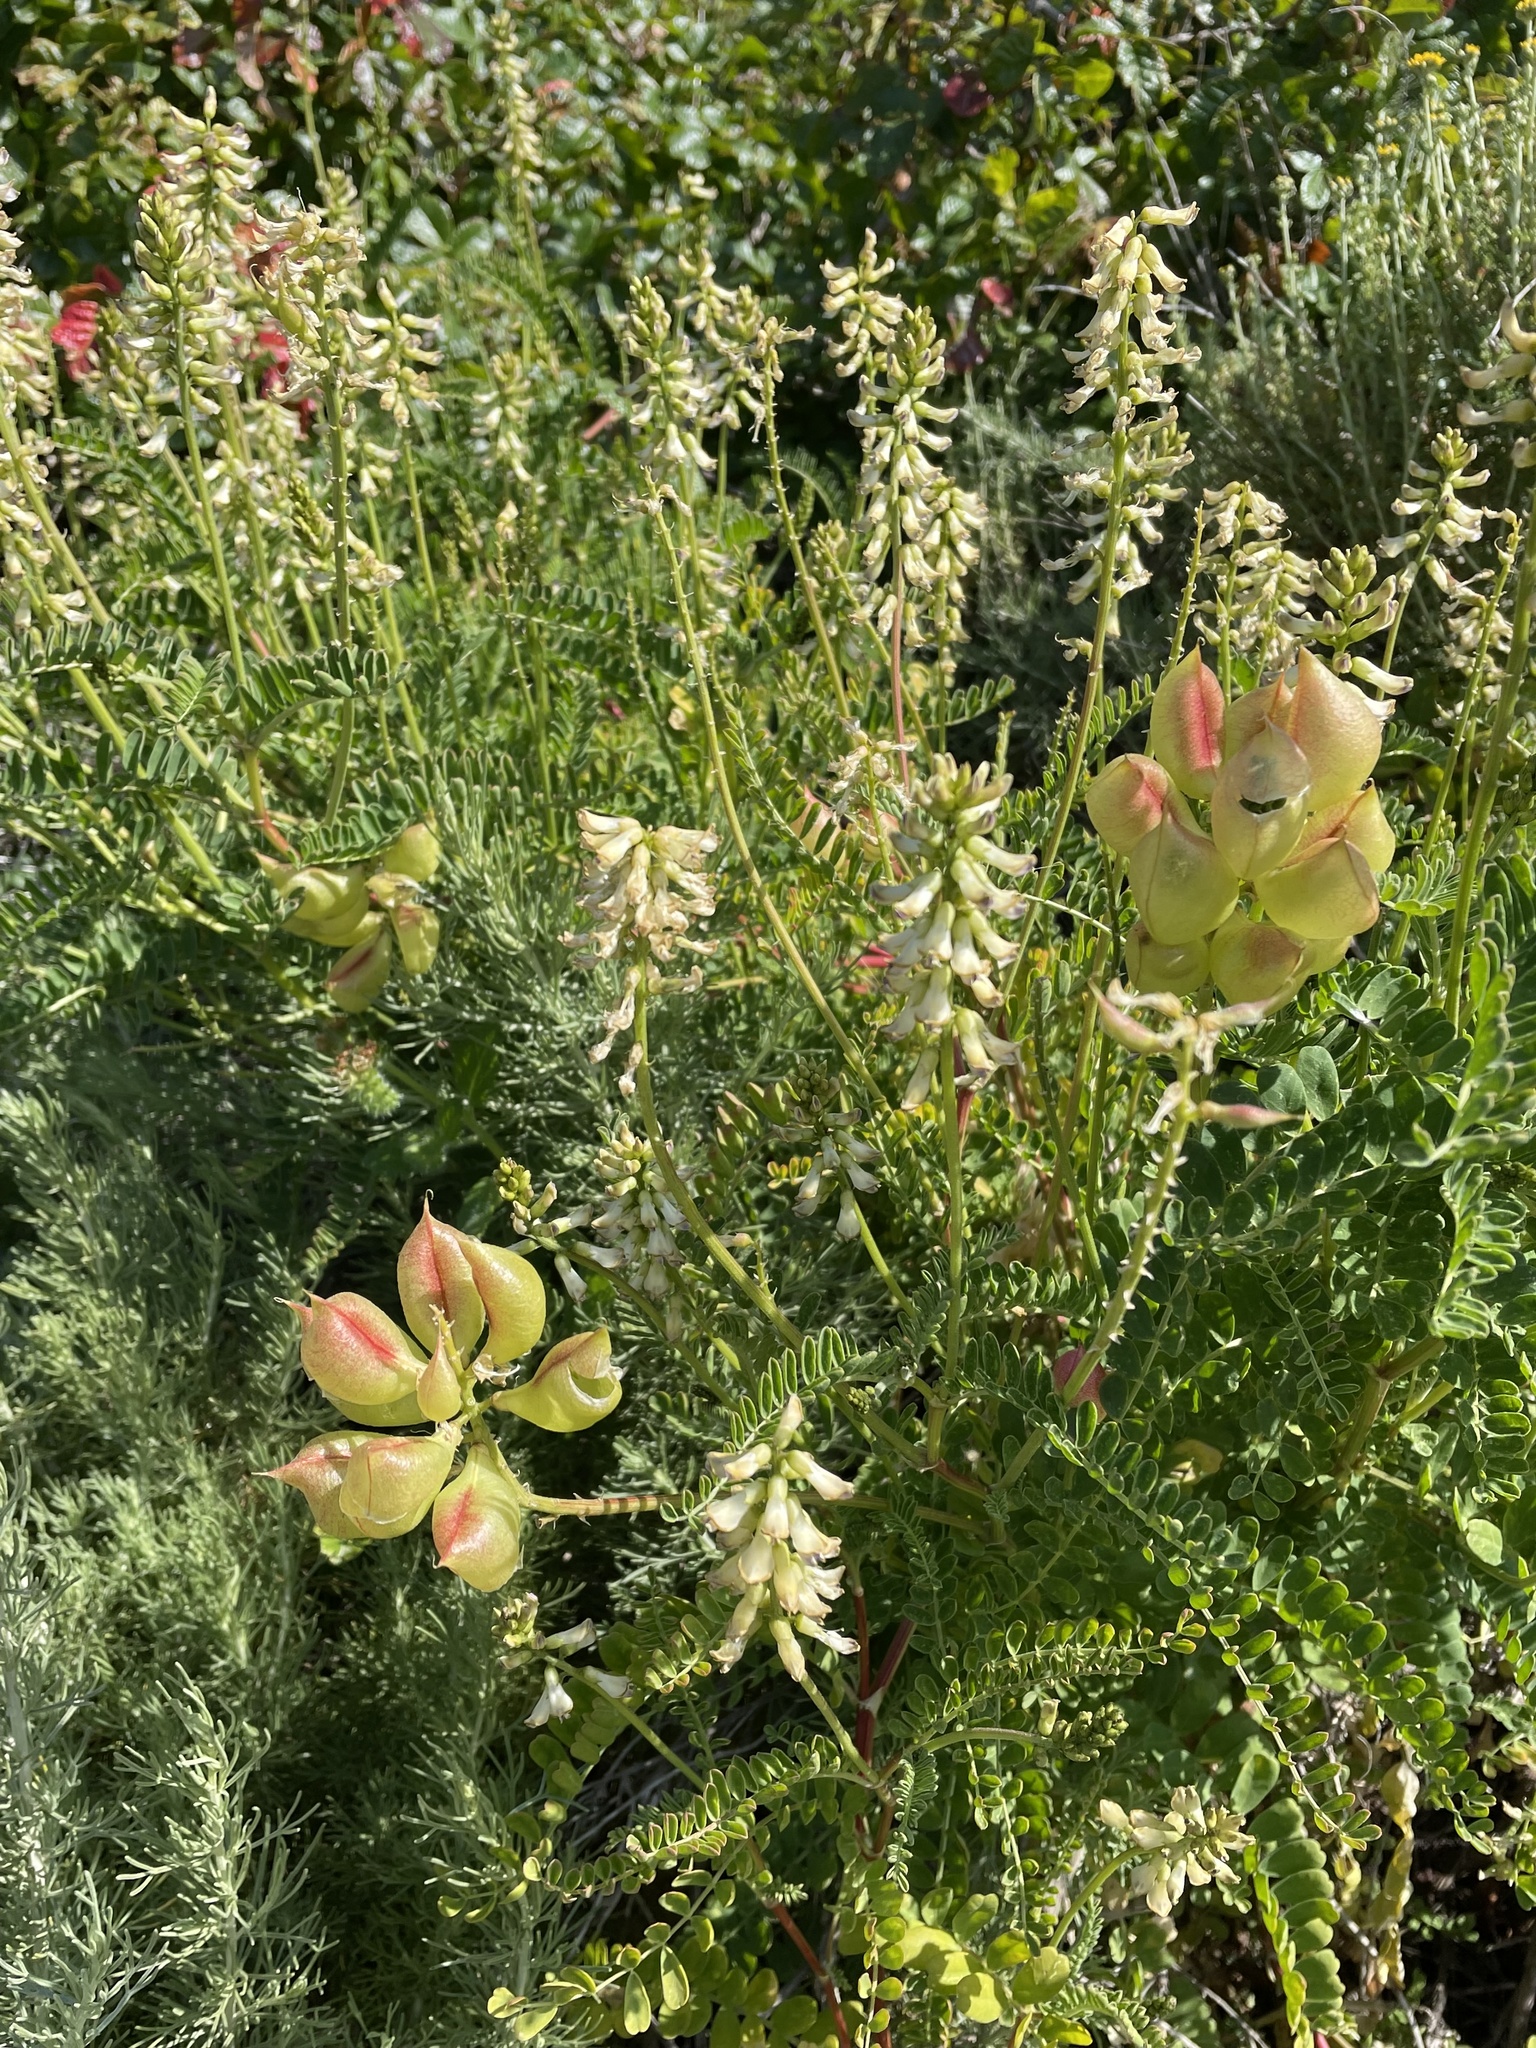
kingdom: Plantae
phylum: Tracheophyta
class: Magnoliopsida
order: Fabales
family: Fabaceae
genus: Astragalus
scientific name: Astragalus nuttallii
